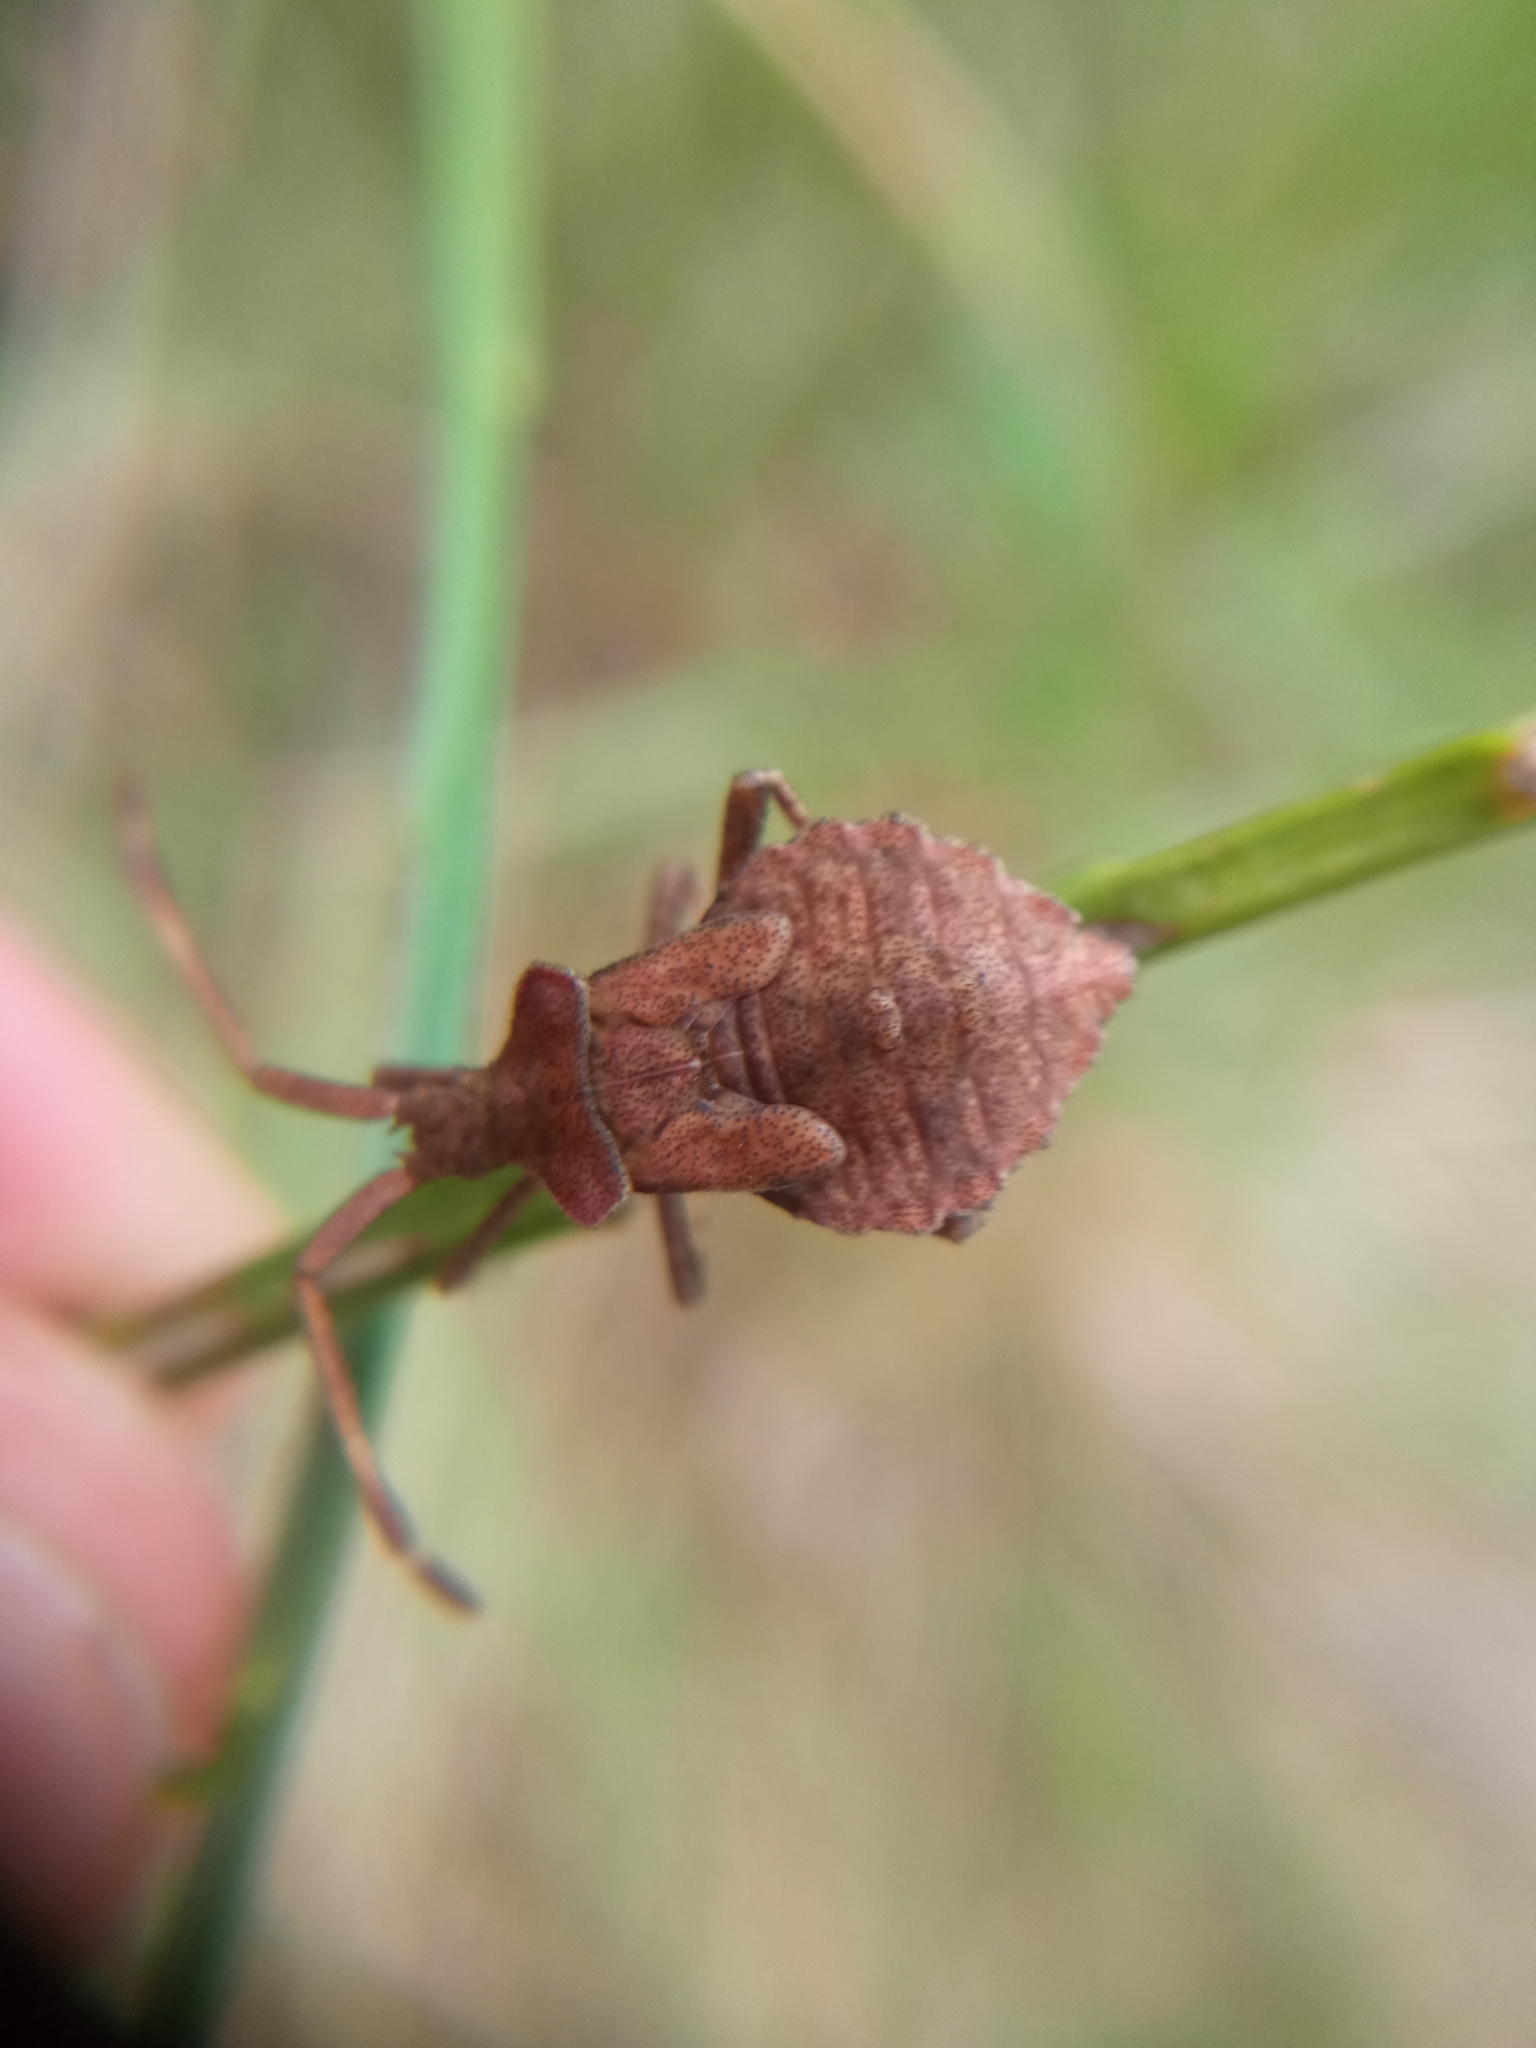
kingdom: Animalia
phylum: Arthropoda
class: Insecta
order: Hemiptera
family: Coreidae
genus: Coreus
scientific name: Coreus marginatus
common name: Dock bug
